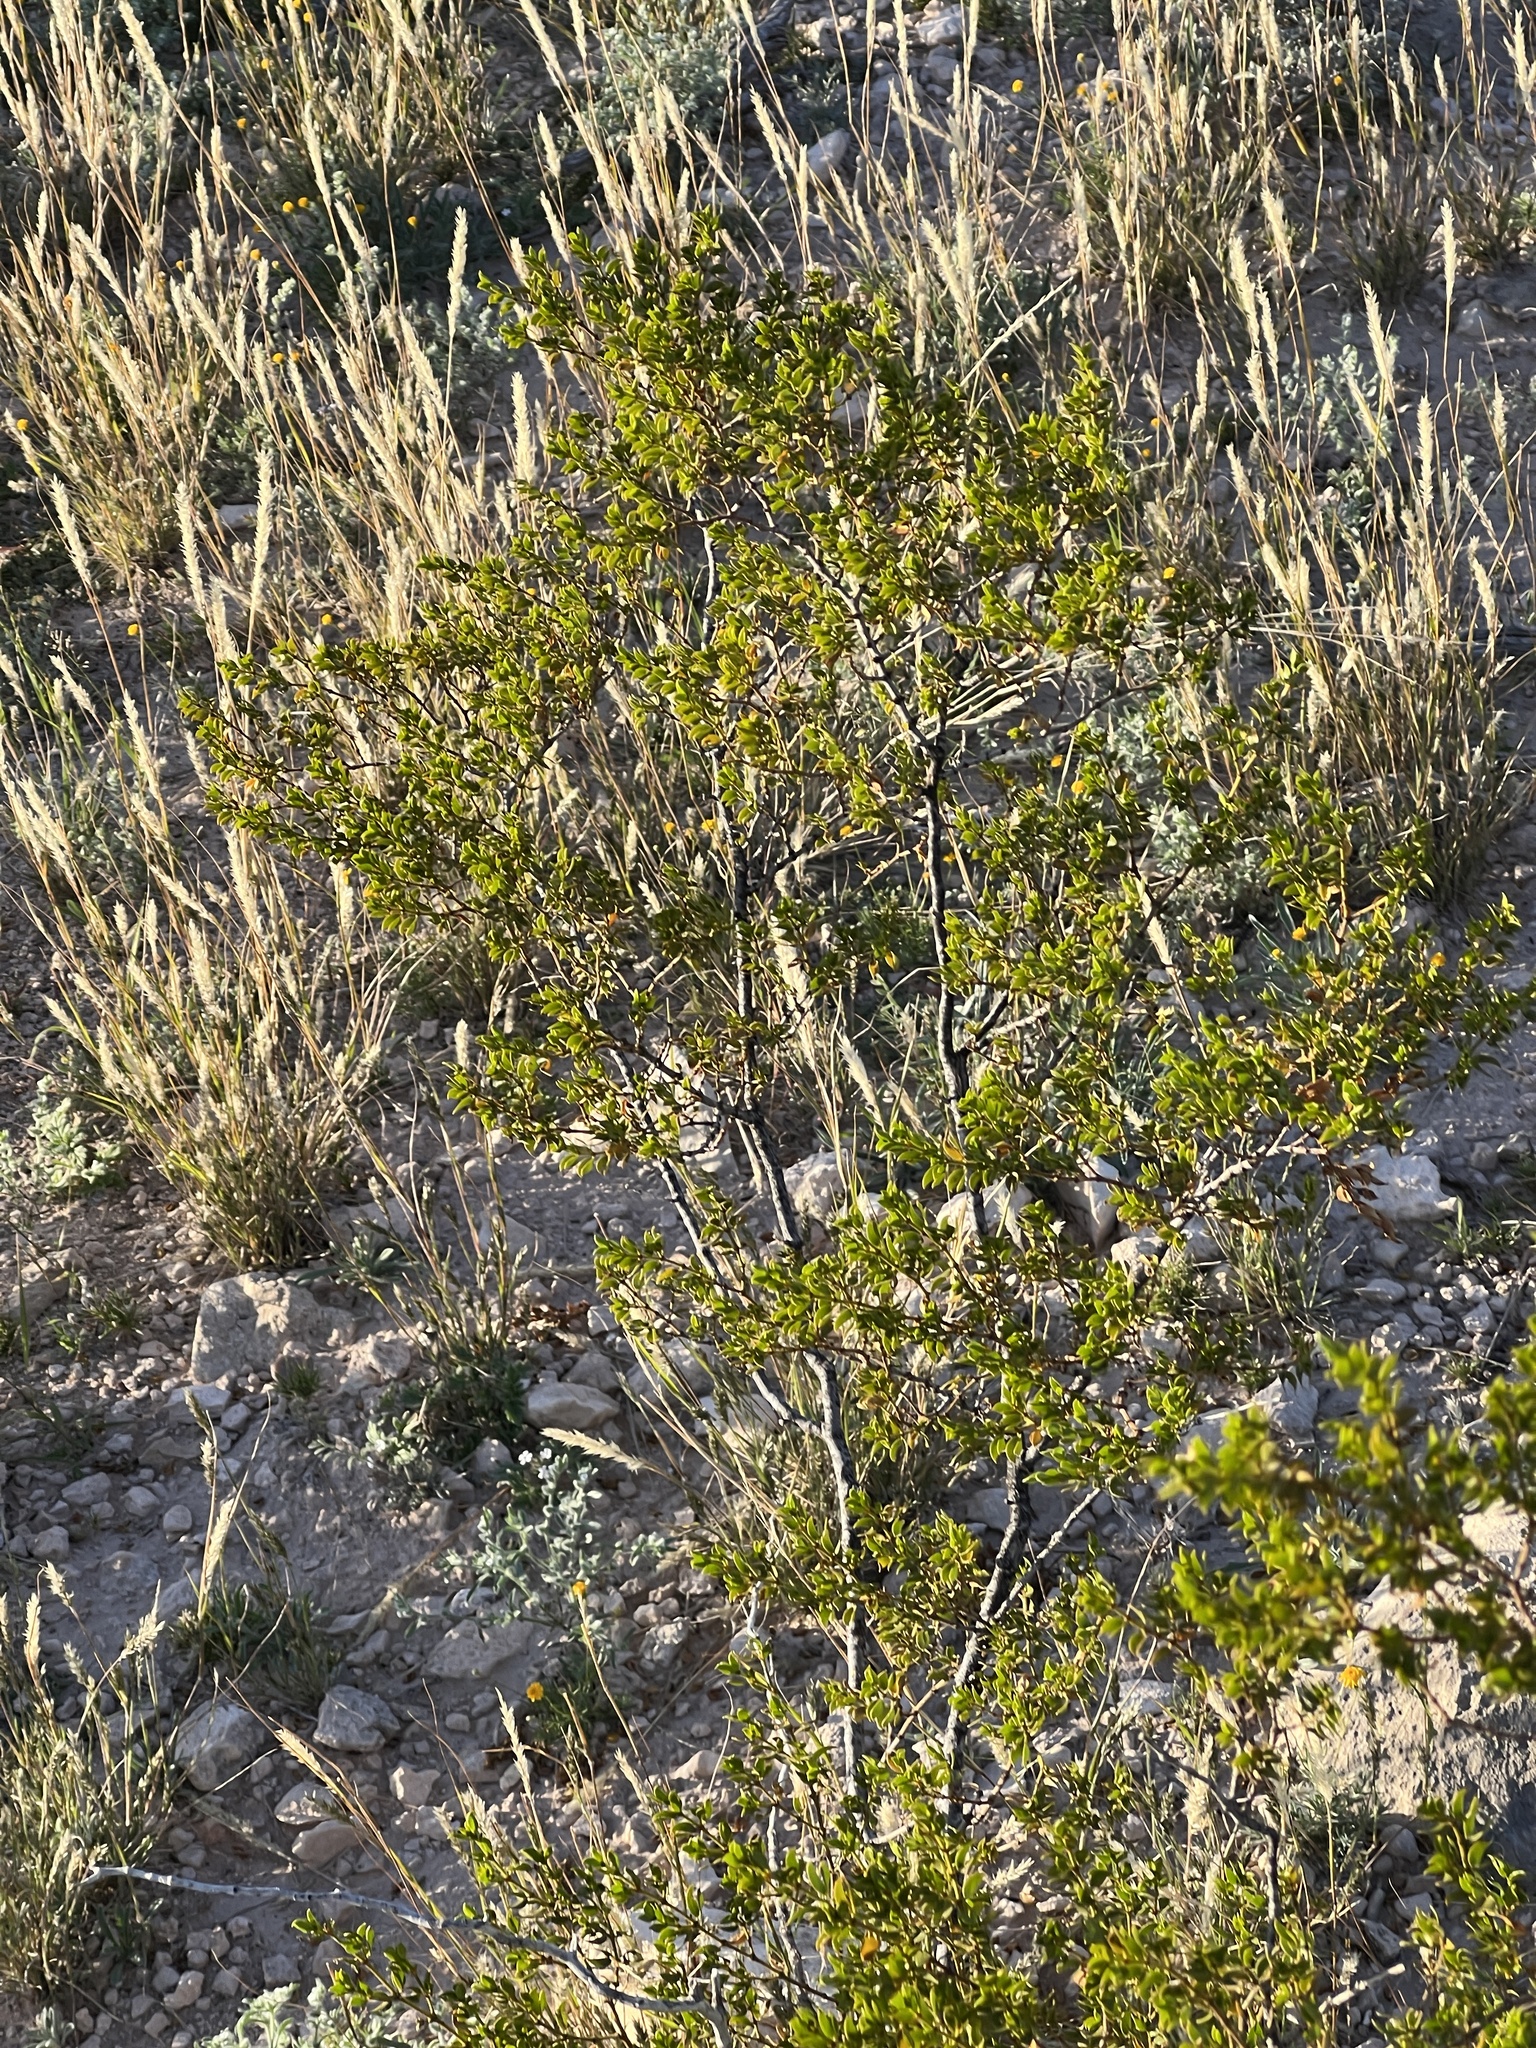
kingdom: Plantae
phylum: Tracheophyta
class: Magnoliopsida
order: Zygophyllales
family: Zygophyllaceae
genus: Larrea
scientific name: Larrea tridentata
